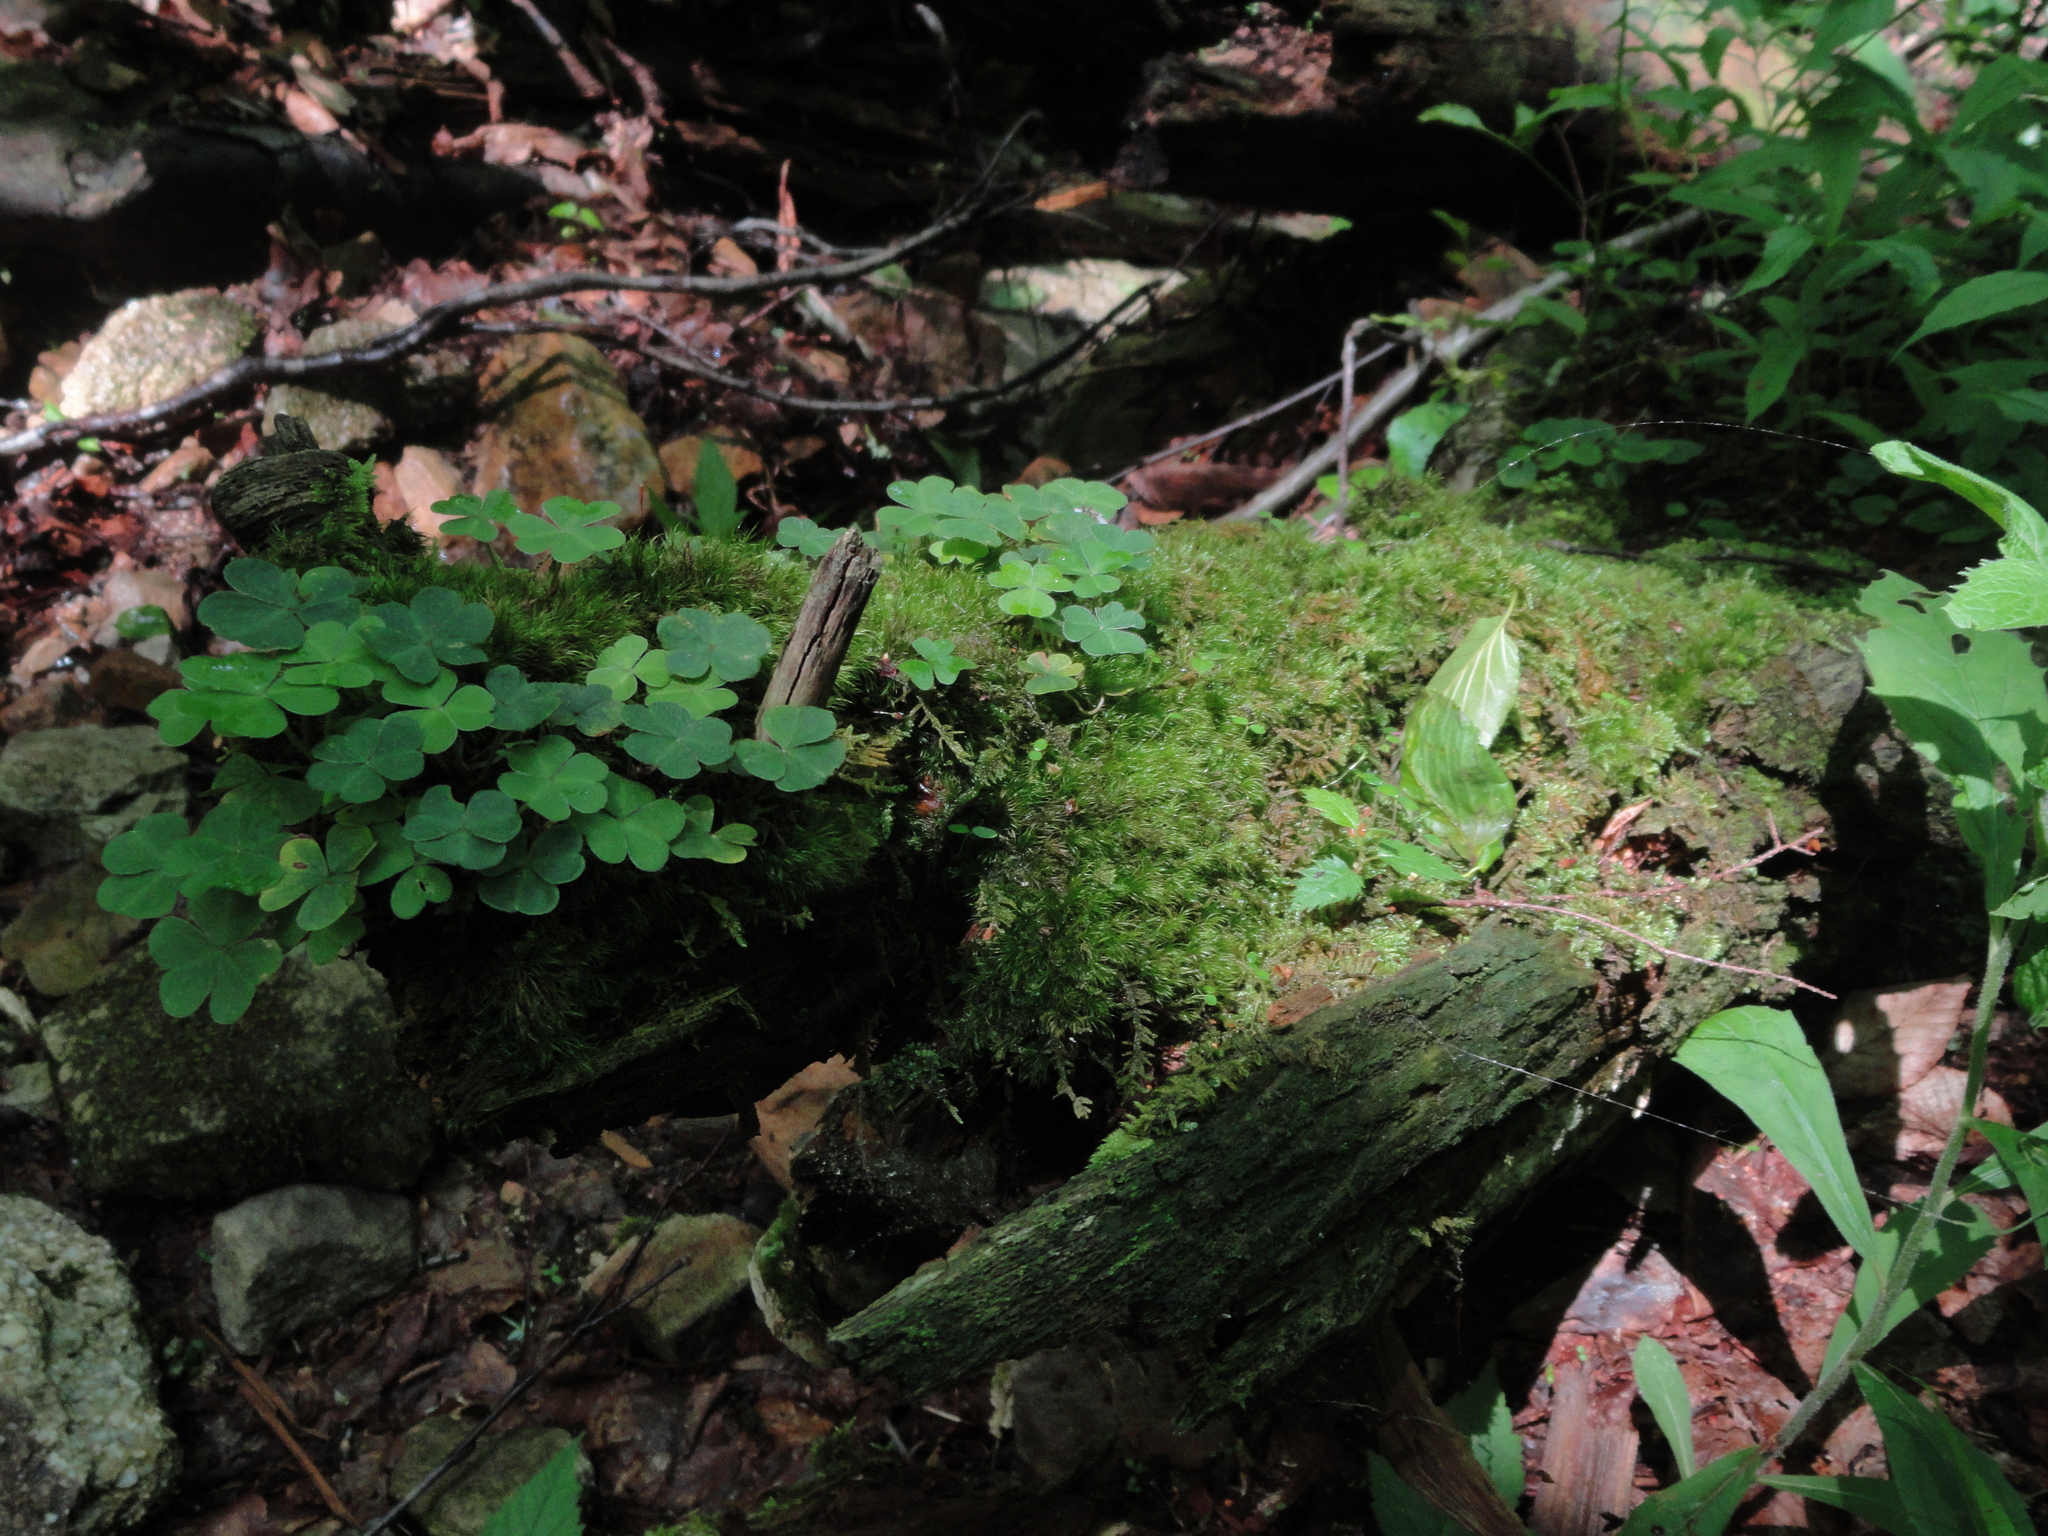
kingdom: Plantae
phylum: Tracheophyta
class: Magnoliopsida
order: Oxalidales
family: Oxalidaceae
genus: Oxalis
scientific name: Oxalis montana
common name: American wood-sorrel
